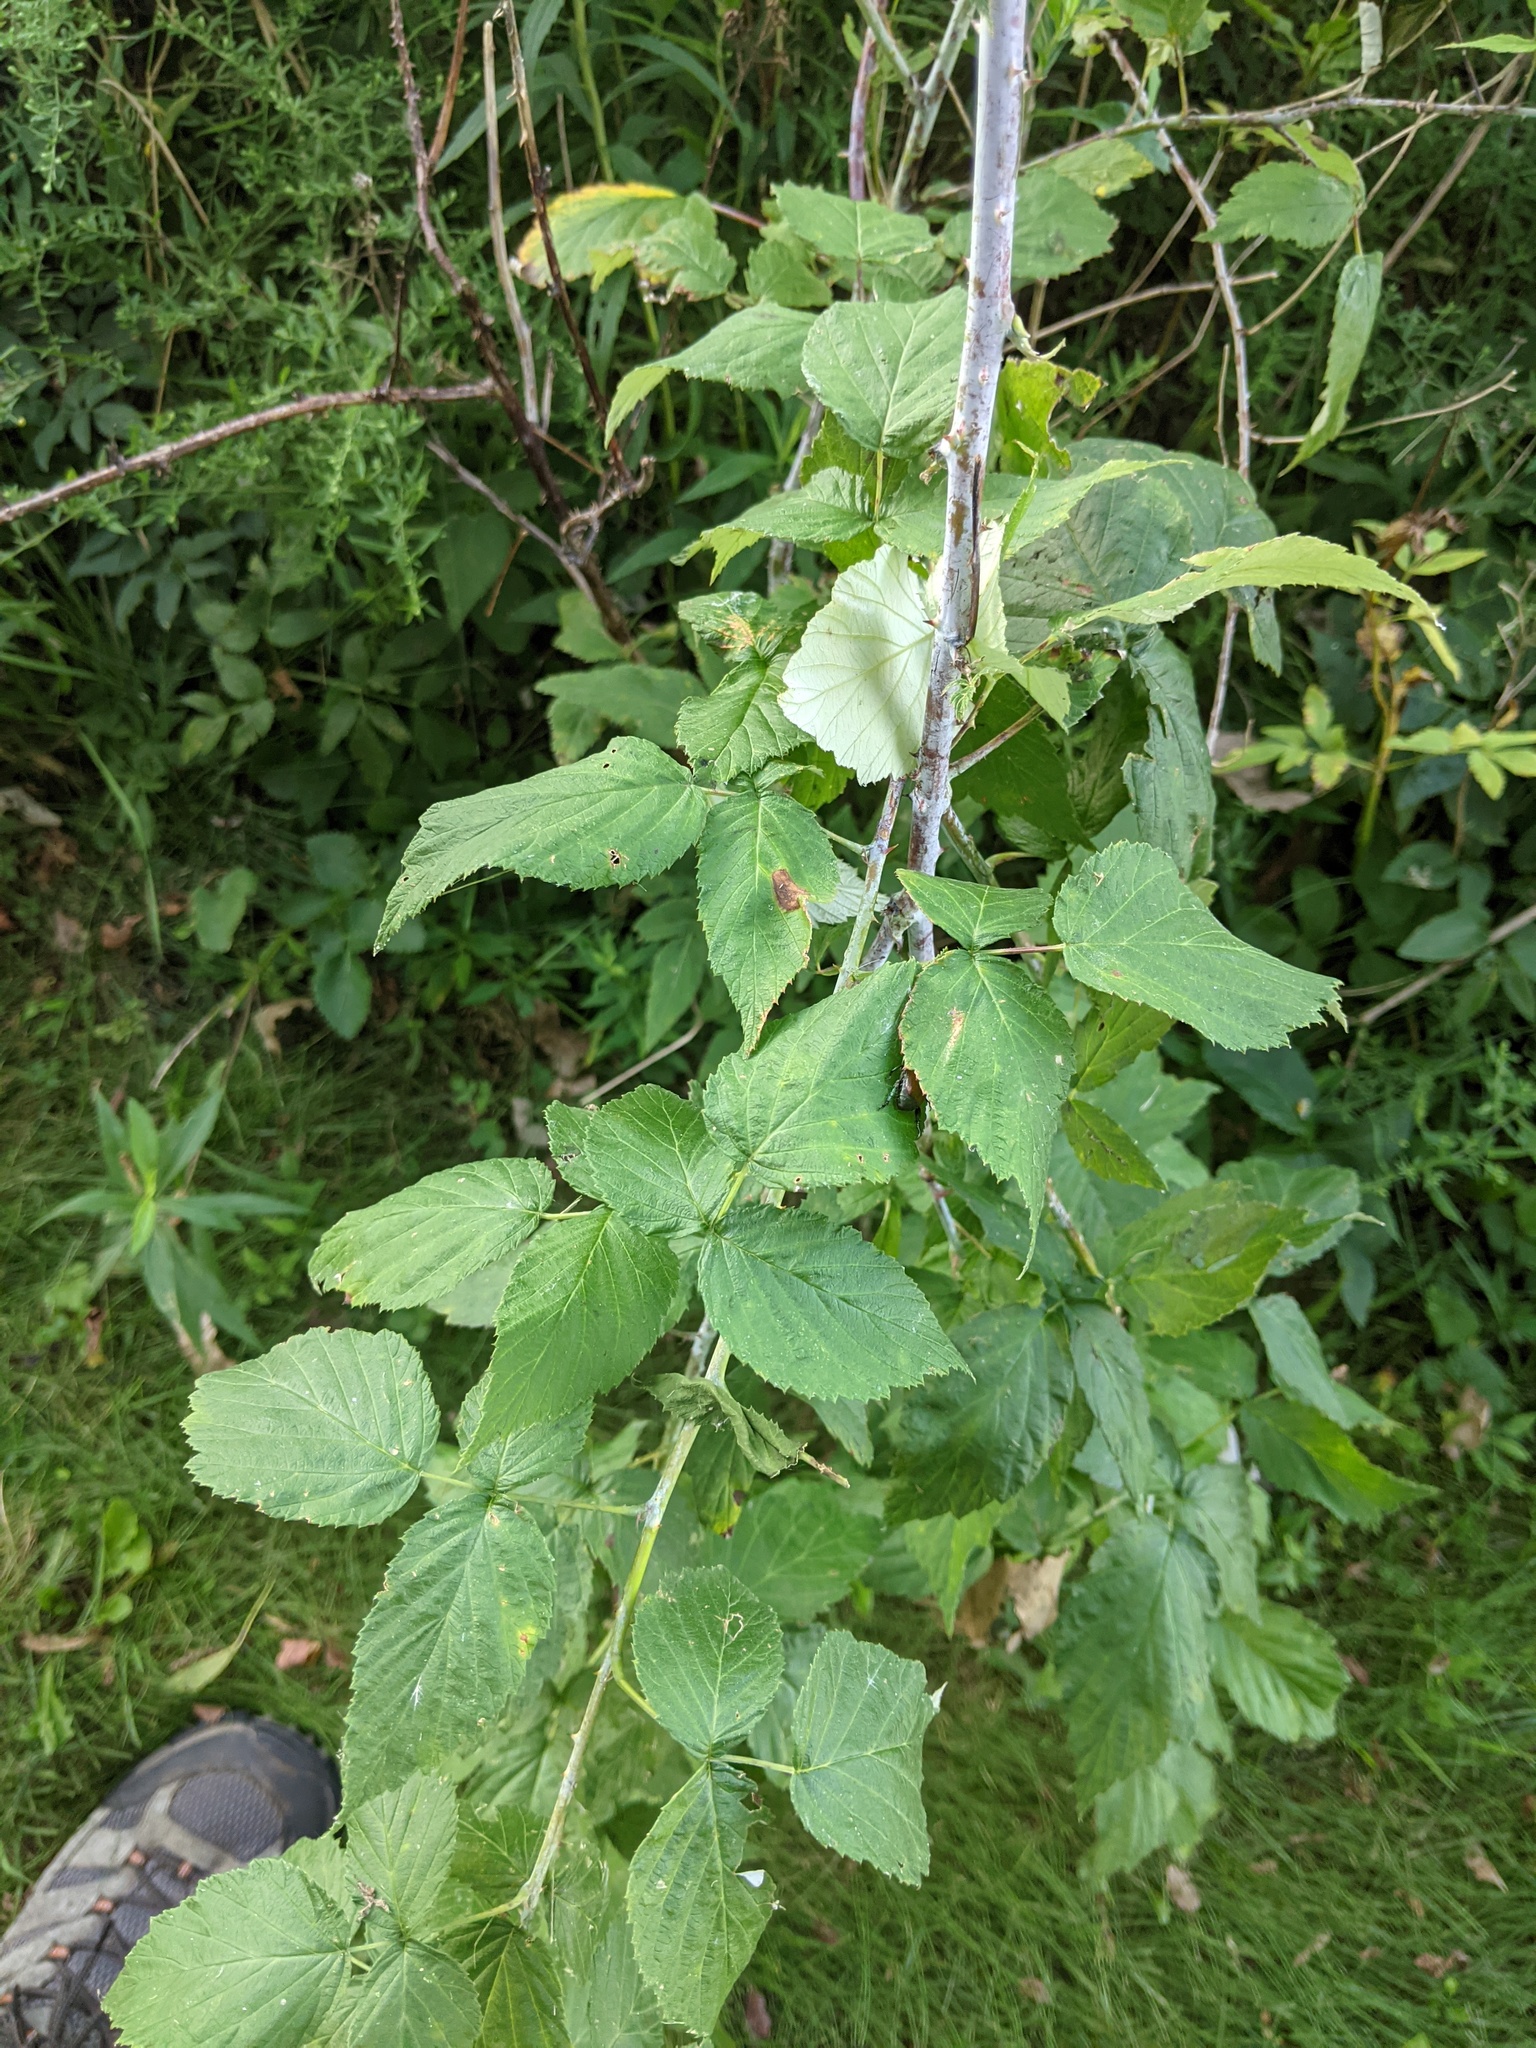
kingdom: Plantae
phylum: Tracheophyta
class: Magnoliopsida
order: Rosales
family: Rosaceae
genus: Rubus
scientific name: Rubus occidentalis
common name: Black raspberry
